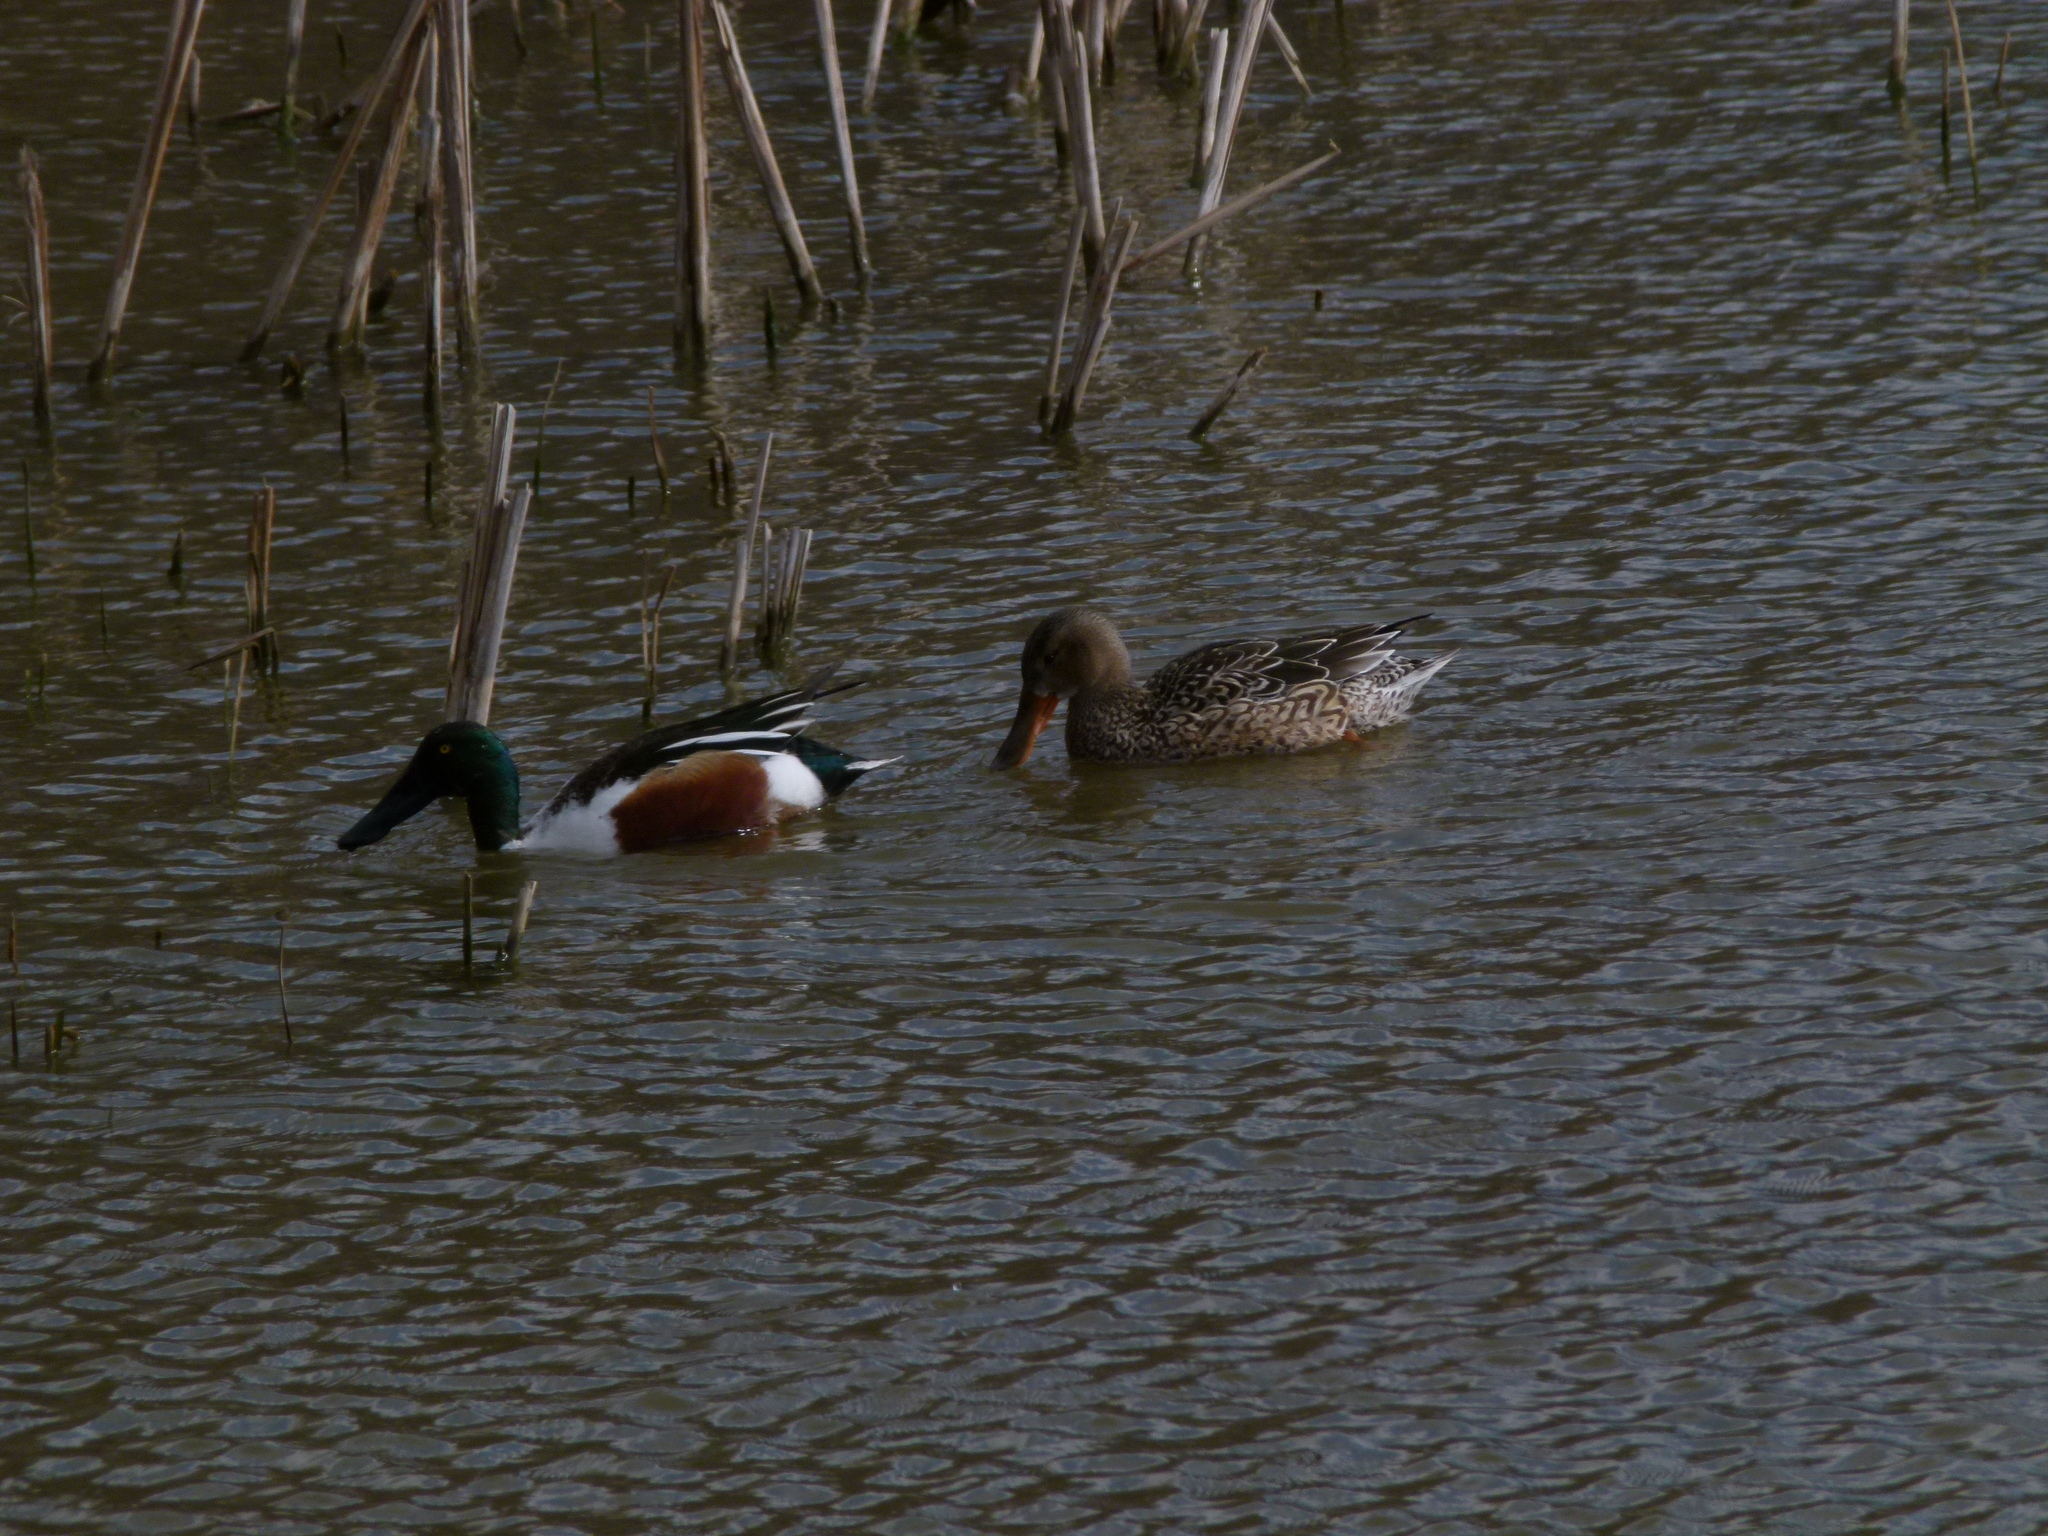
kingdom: Animalia
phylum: Chordata
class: Aves
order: Anseriformes
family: Anatidae
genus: Spatula
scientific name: Spatula clypeata
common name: Northern shoveler
